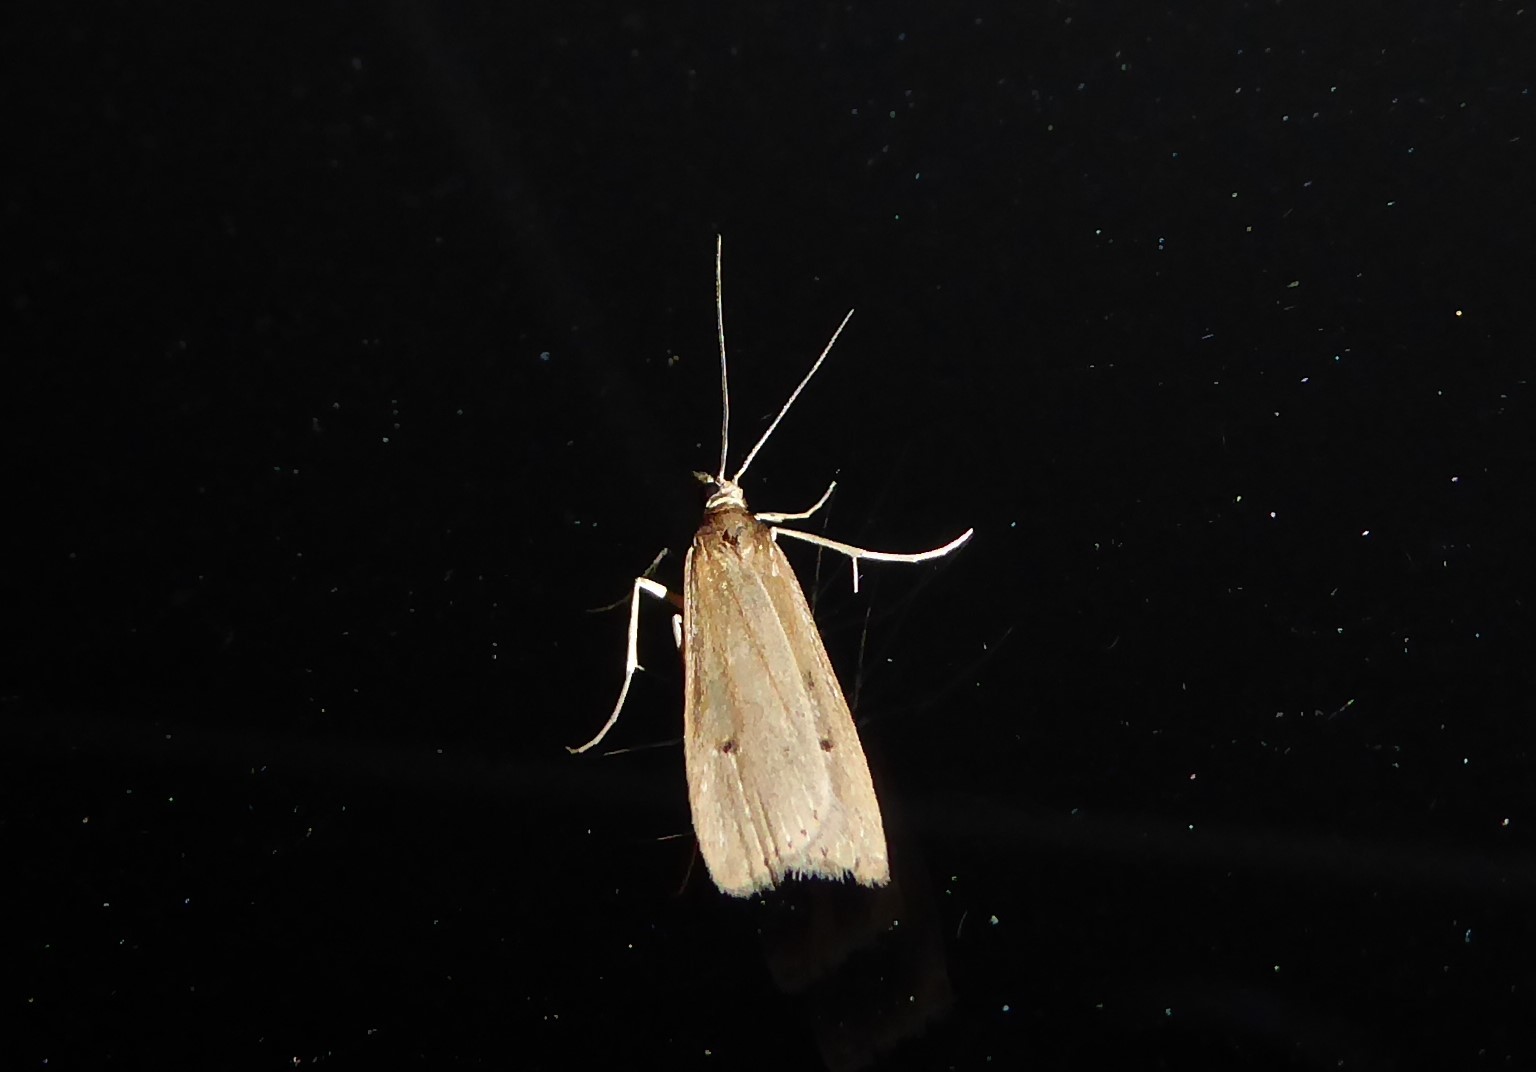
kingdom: Animalia
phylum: Arthropoda
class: Insecta
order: Lepidoptera
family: Crambidae
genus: Eudonia
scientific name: Eudonia sabulosella
